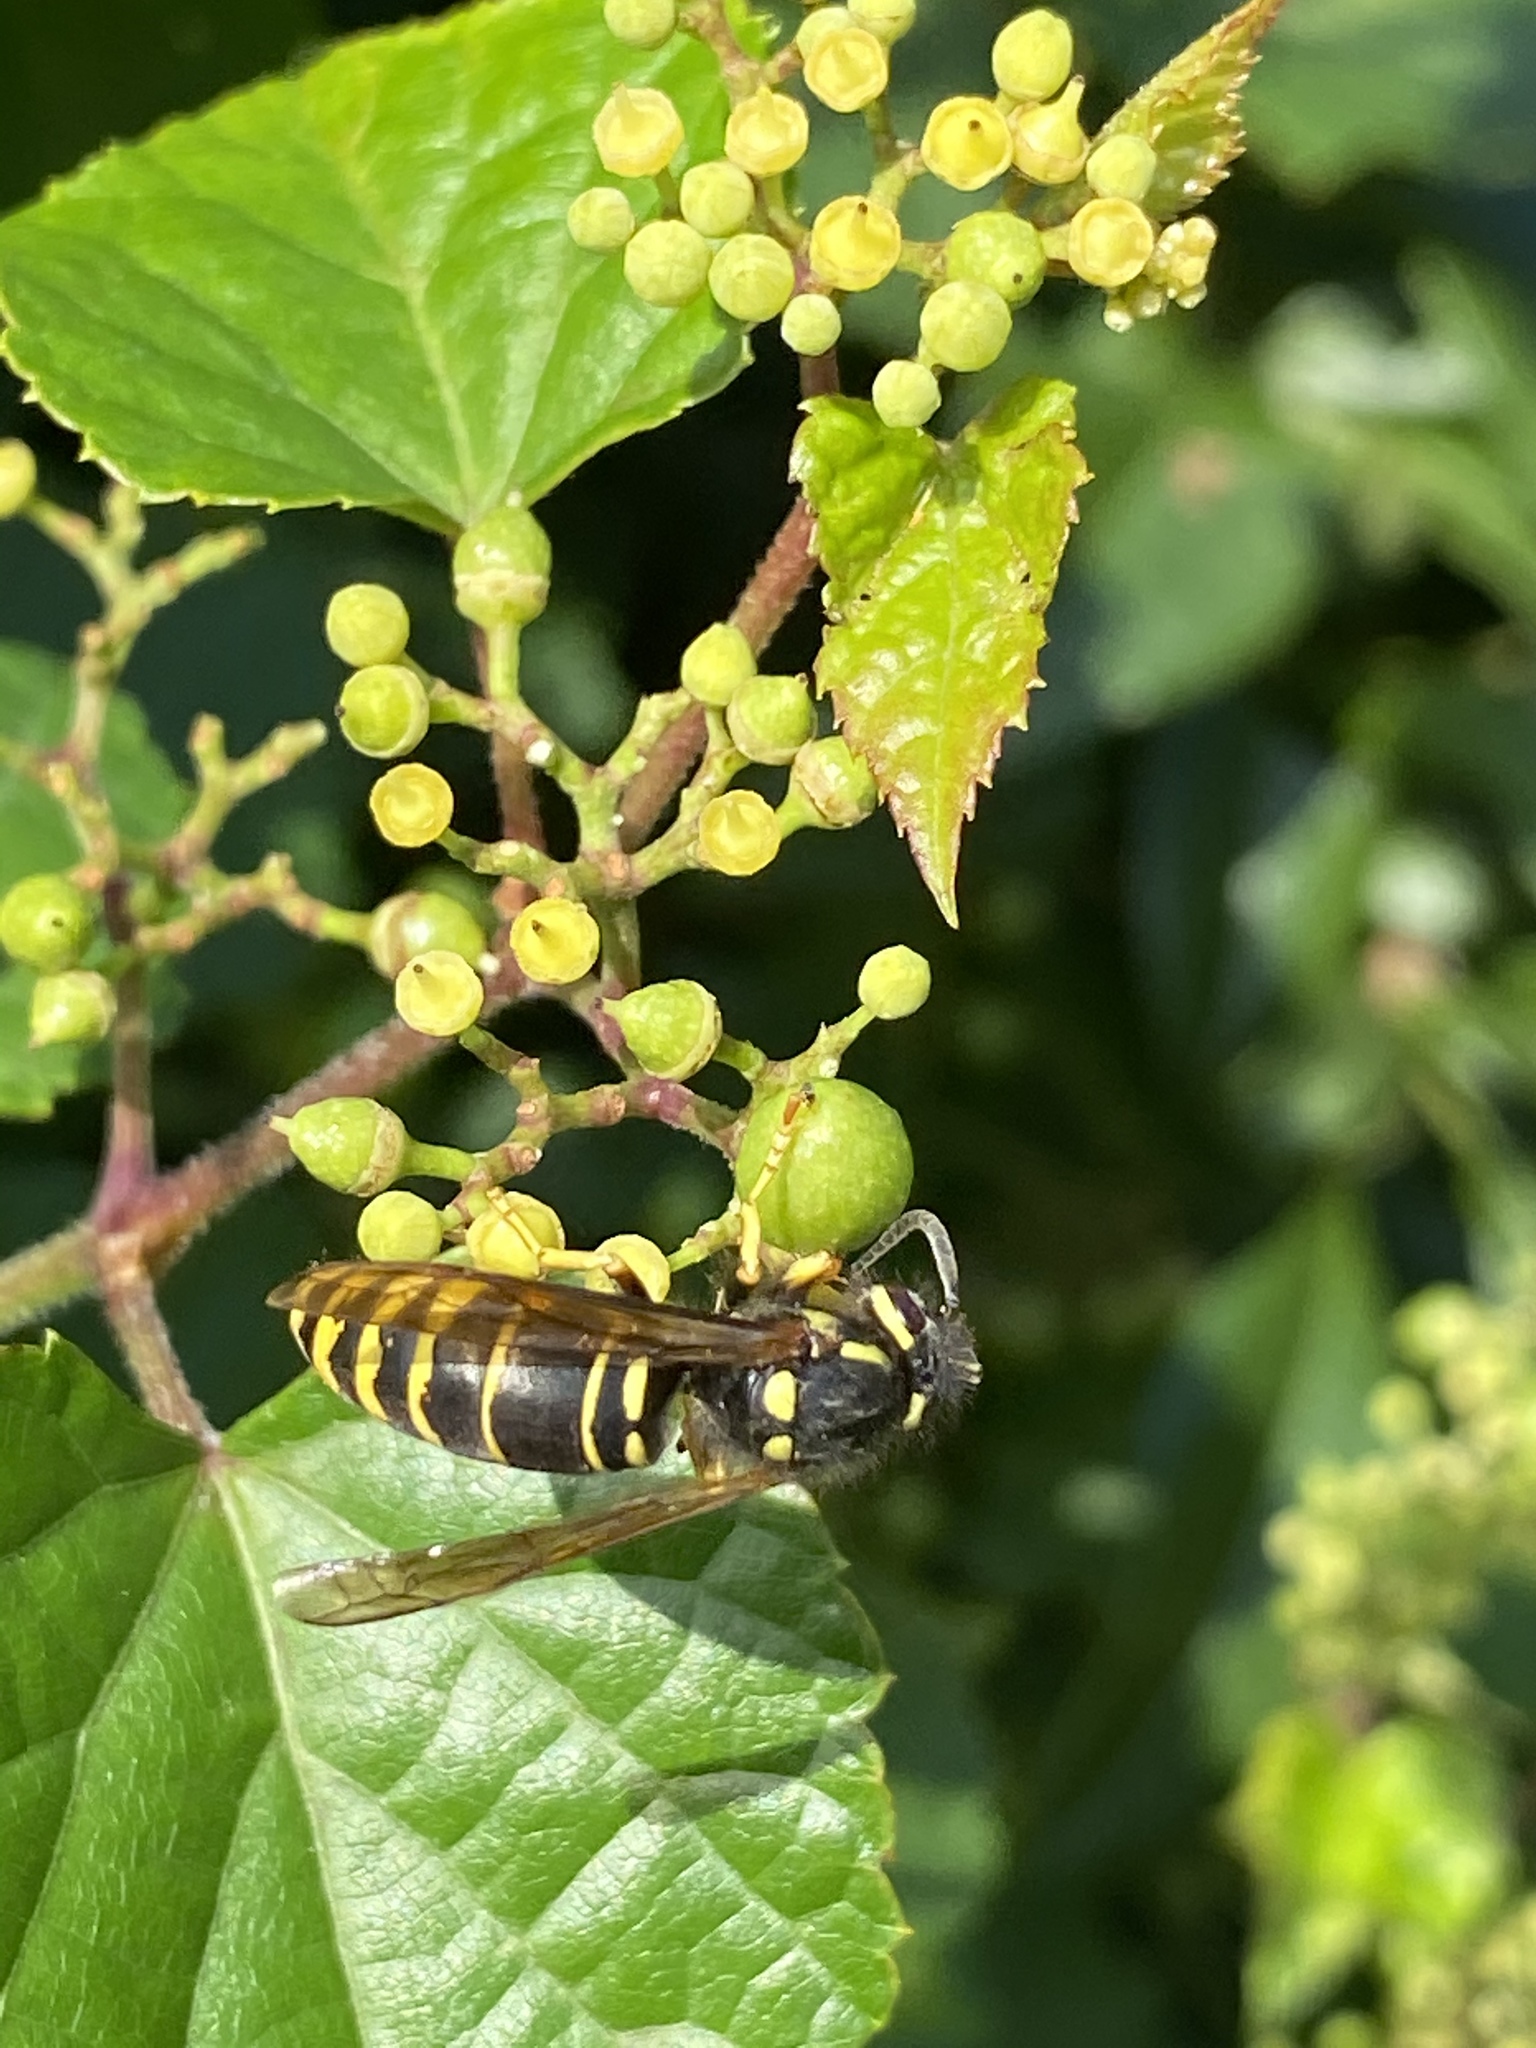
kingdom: Animalia
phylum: Arthropoda
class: Insecta
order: Hymenoptera
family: Vespidae
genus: Vespula
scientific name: Vespula vidua
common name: Widow yellowjacket
